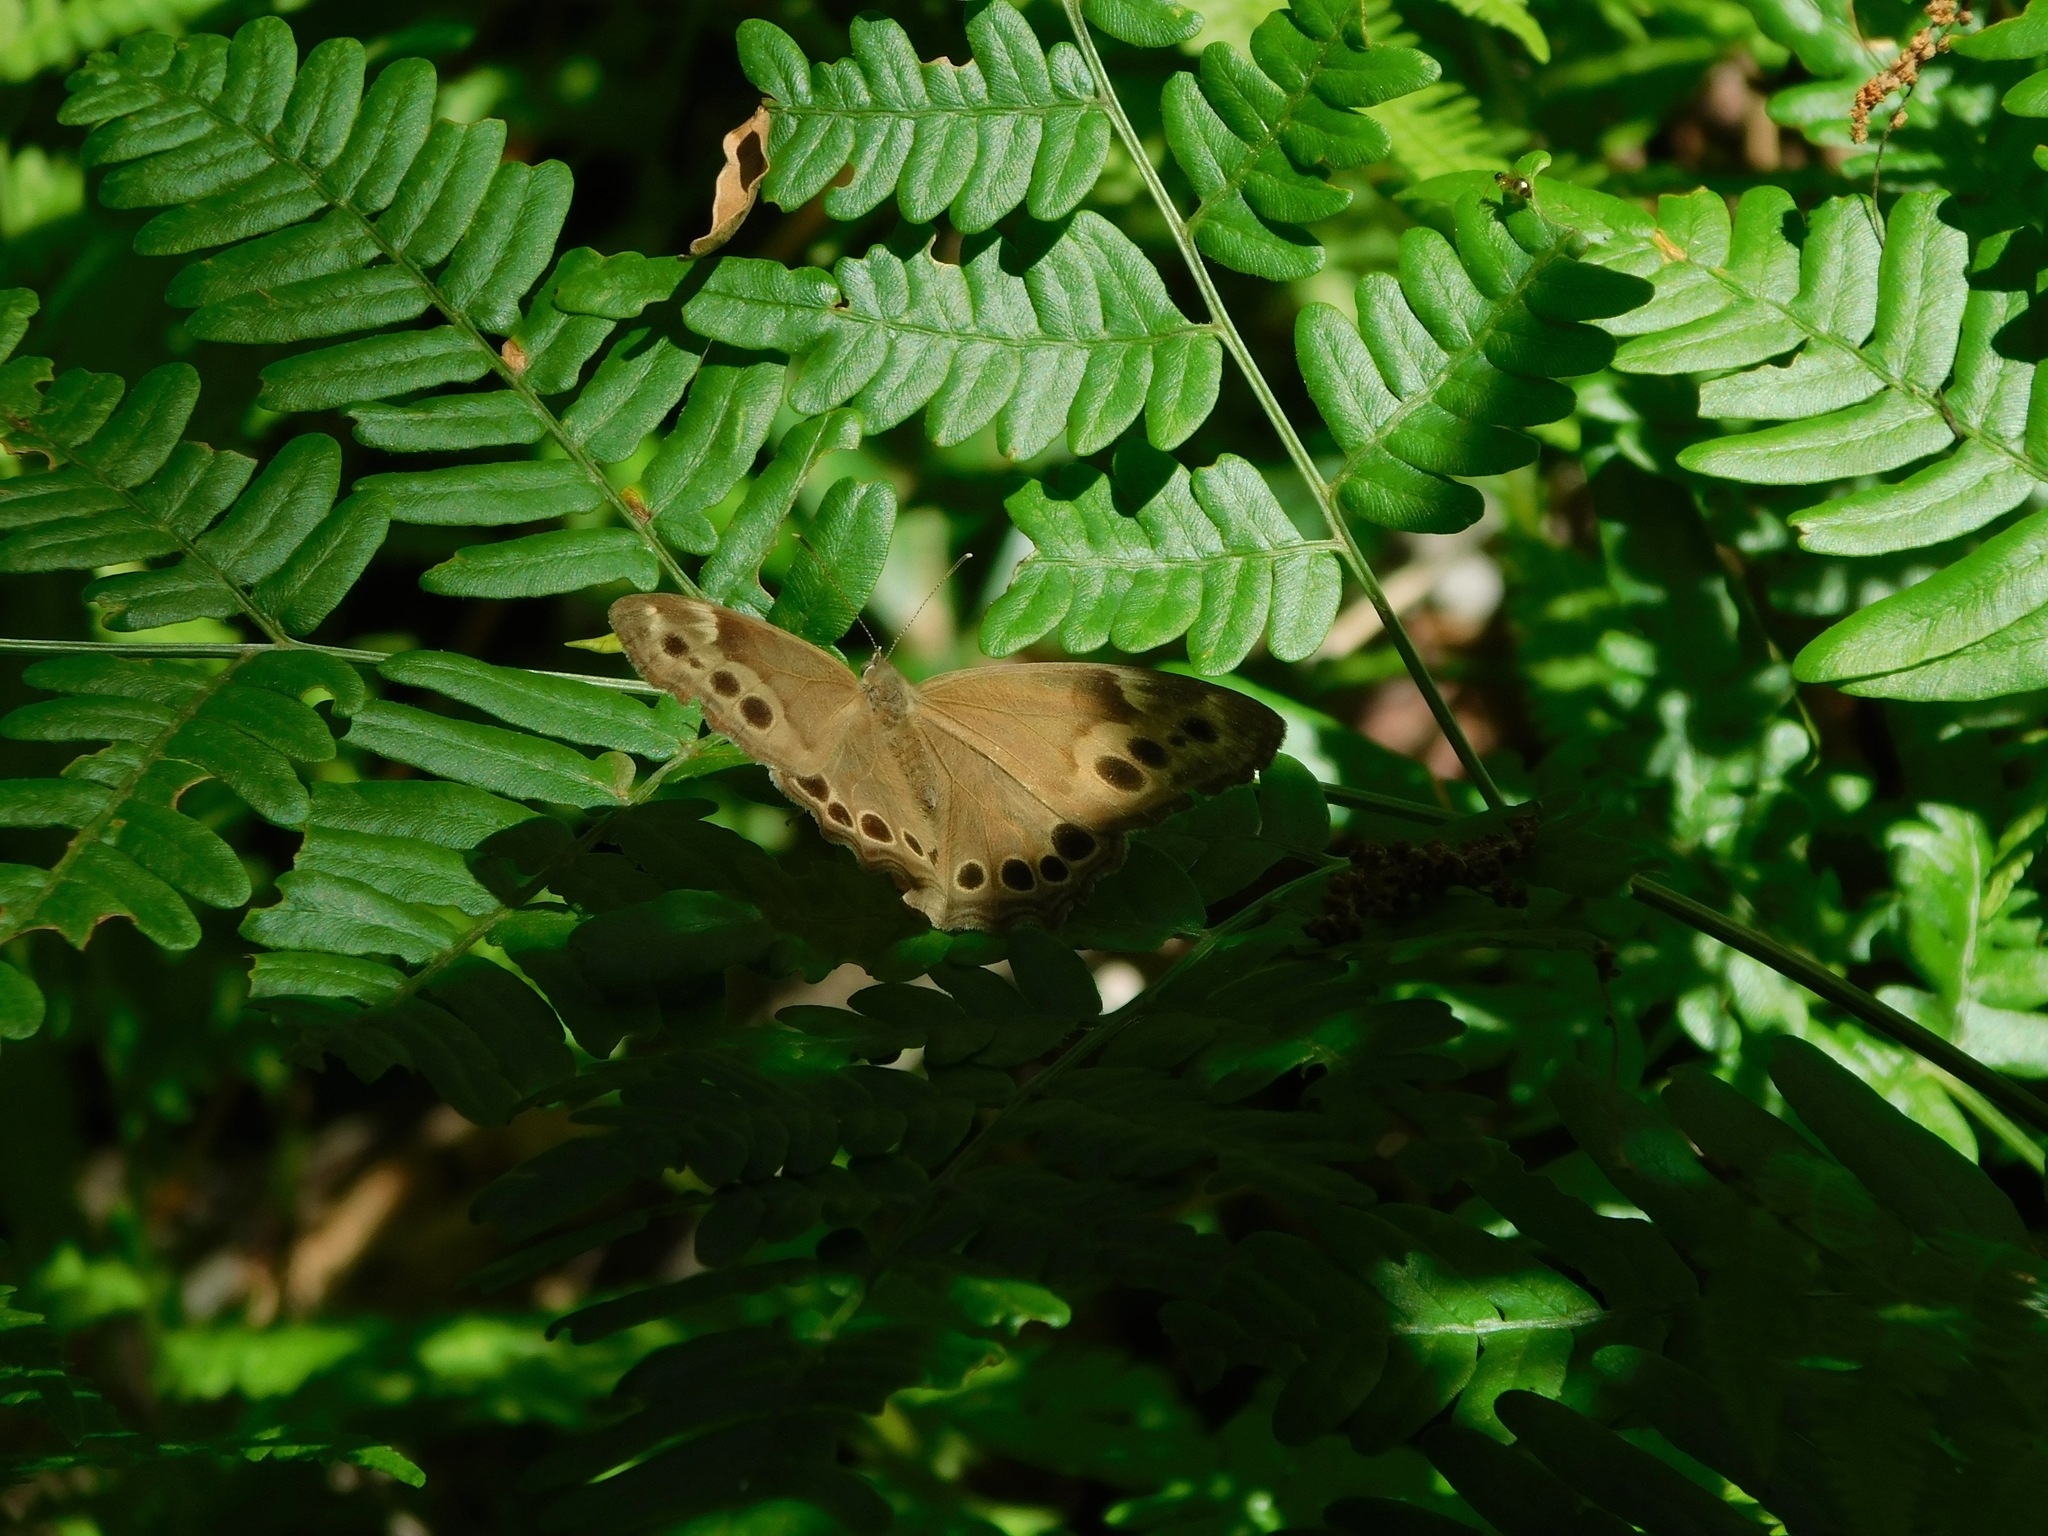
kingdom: Animalia
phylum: Arthropoda
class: Insecta
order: Lepidoptera
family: Nymphalidae
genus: Lethe
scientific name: Lethe anthedon
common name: Northern pearly-eye
